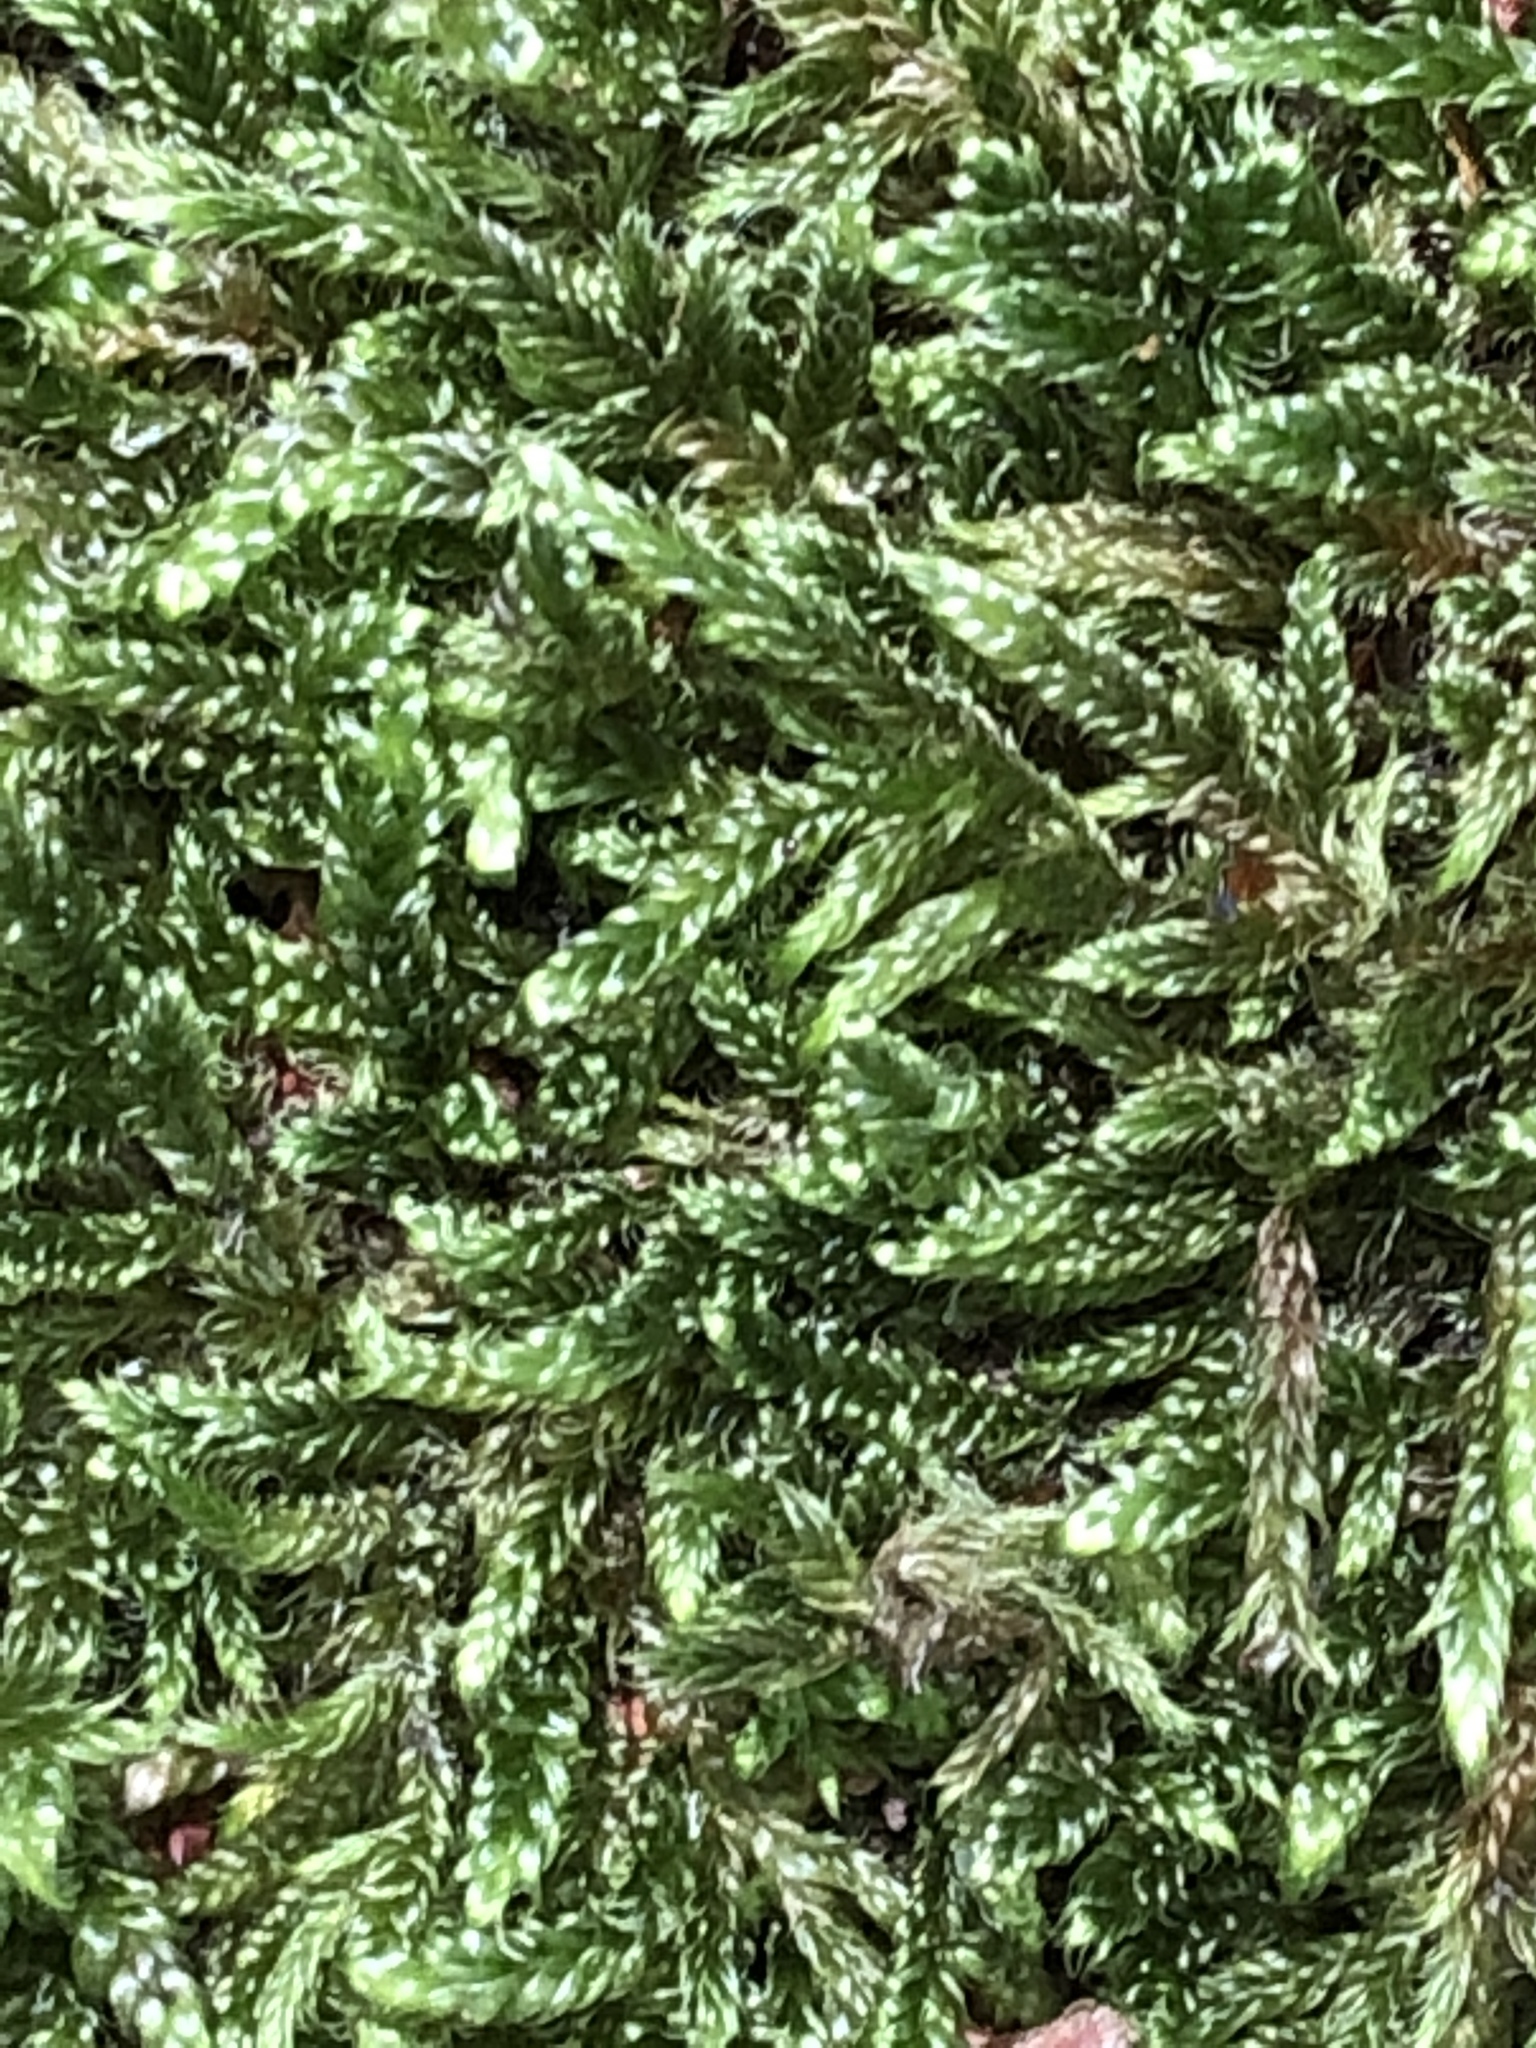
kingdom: Plantae
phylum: Bryophyta
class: Bryopsida
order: Hypnales
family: Hypnaceae
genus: Hypnum
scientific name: Hypnum cupressiforme
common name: Cypress-leaved plait-moss
